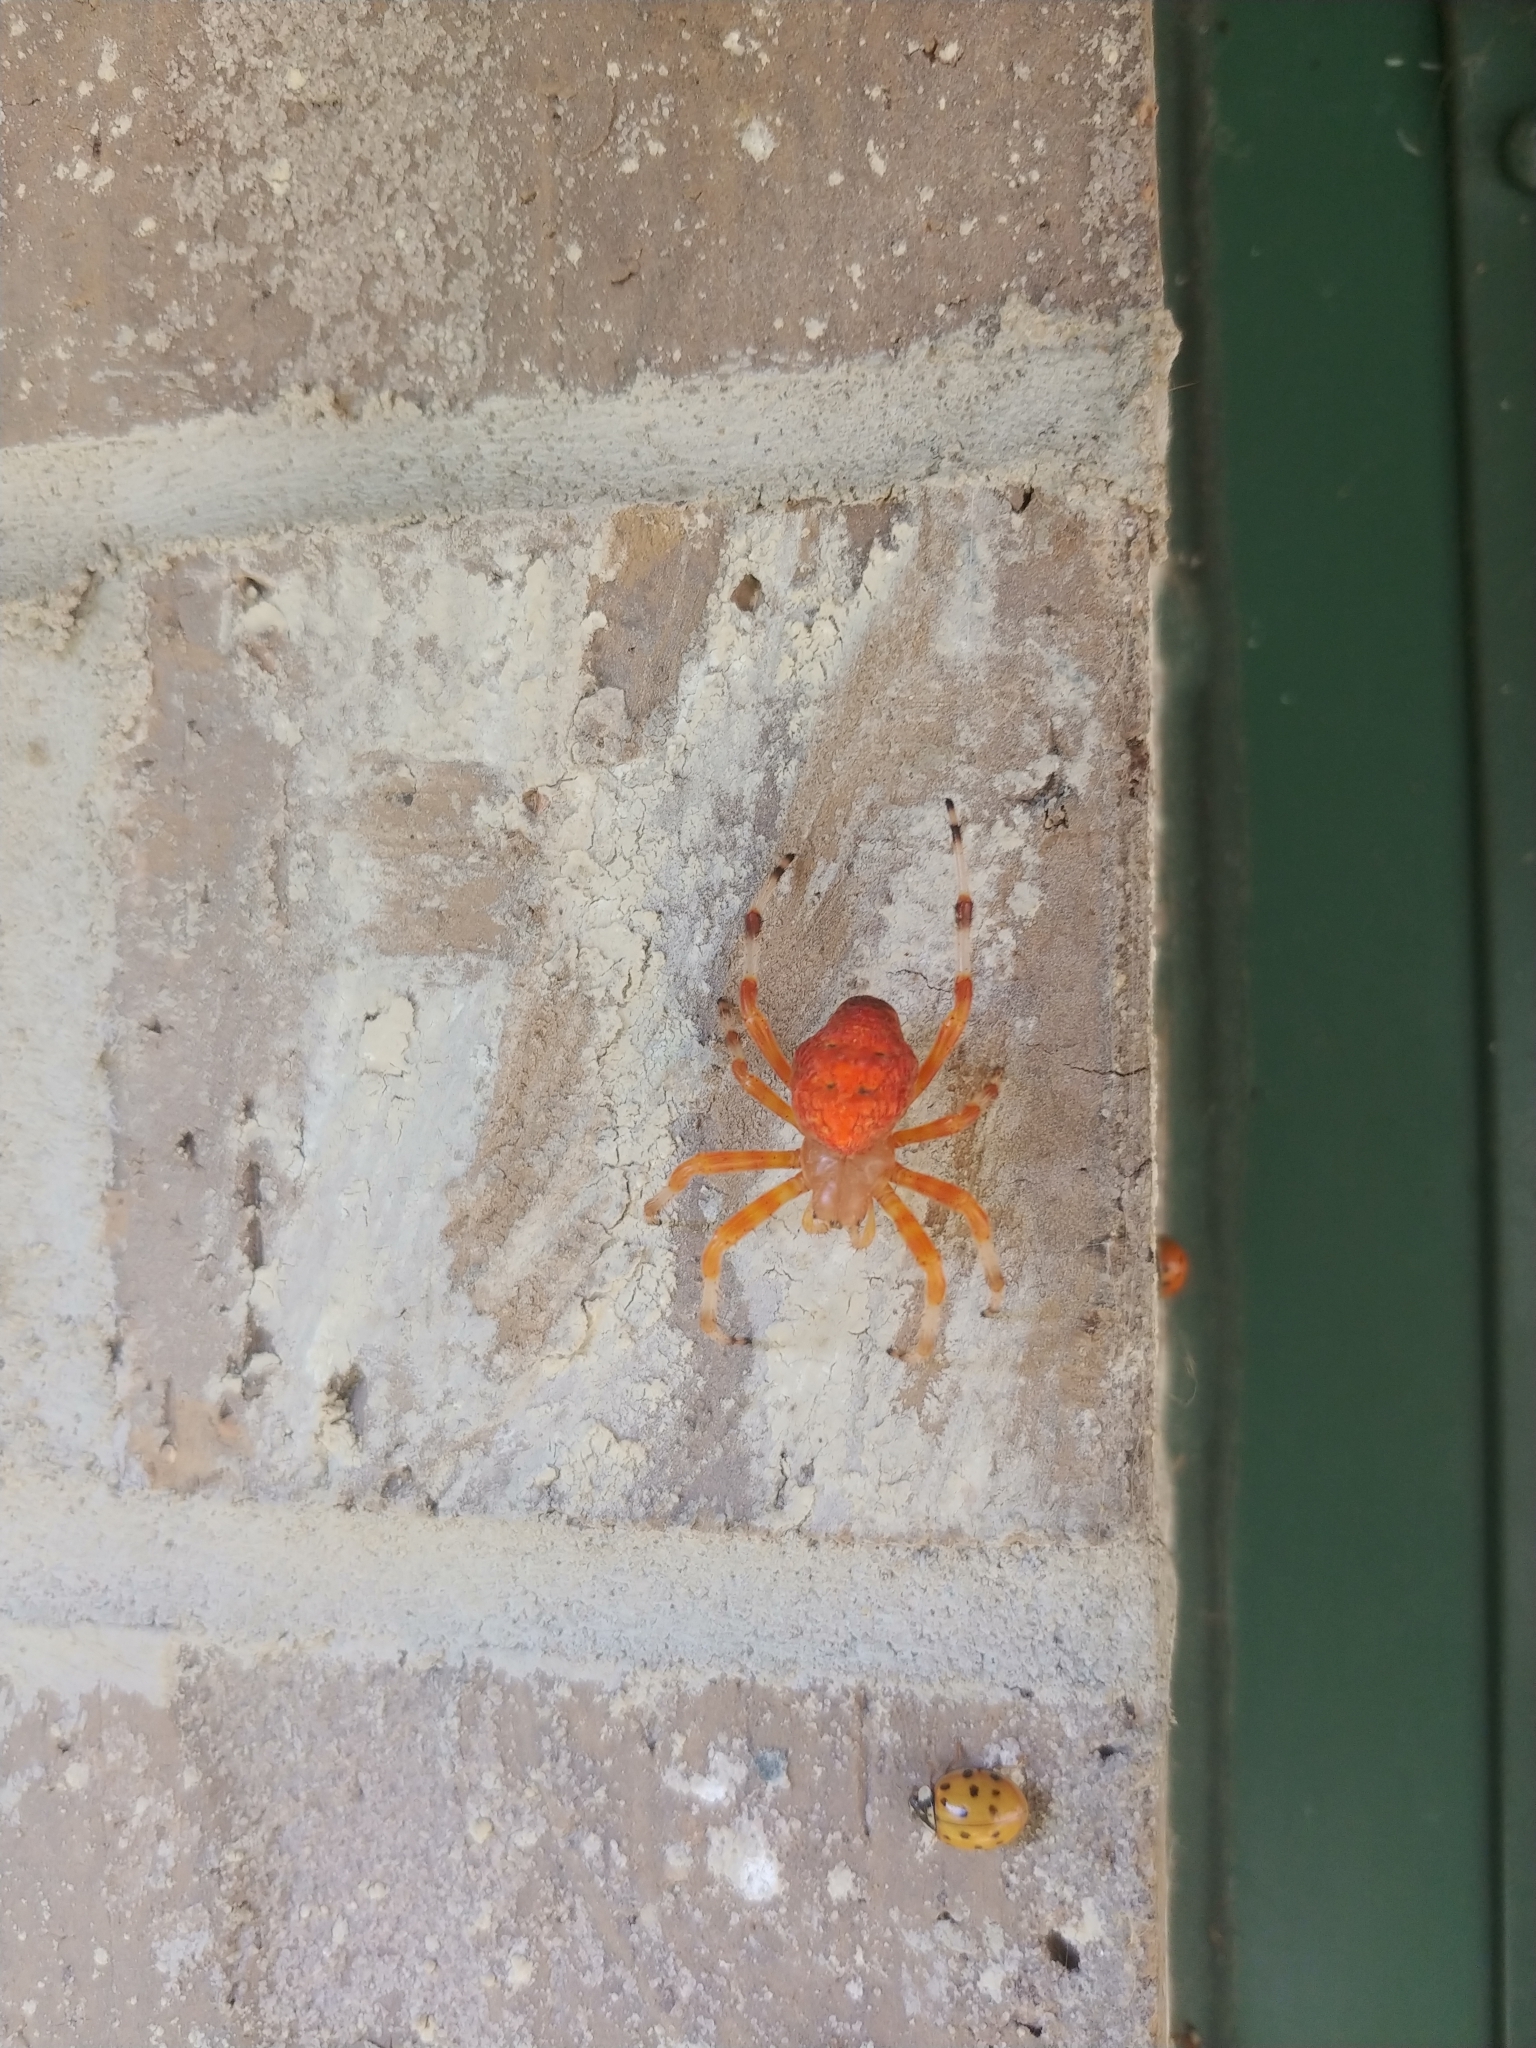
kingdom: Animalia
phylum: Arthropoda
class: Arachnida
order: Araneae
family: Araneidae
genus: Araneus
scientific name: Araneus marmoreus
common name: Marbled orbweaver
